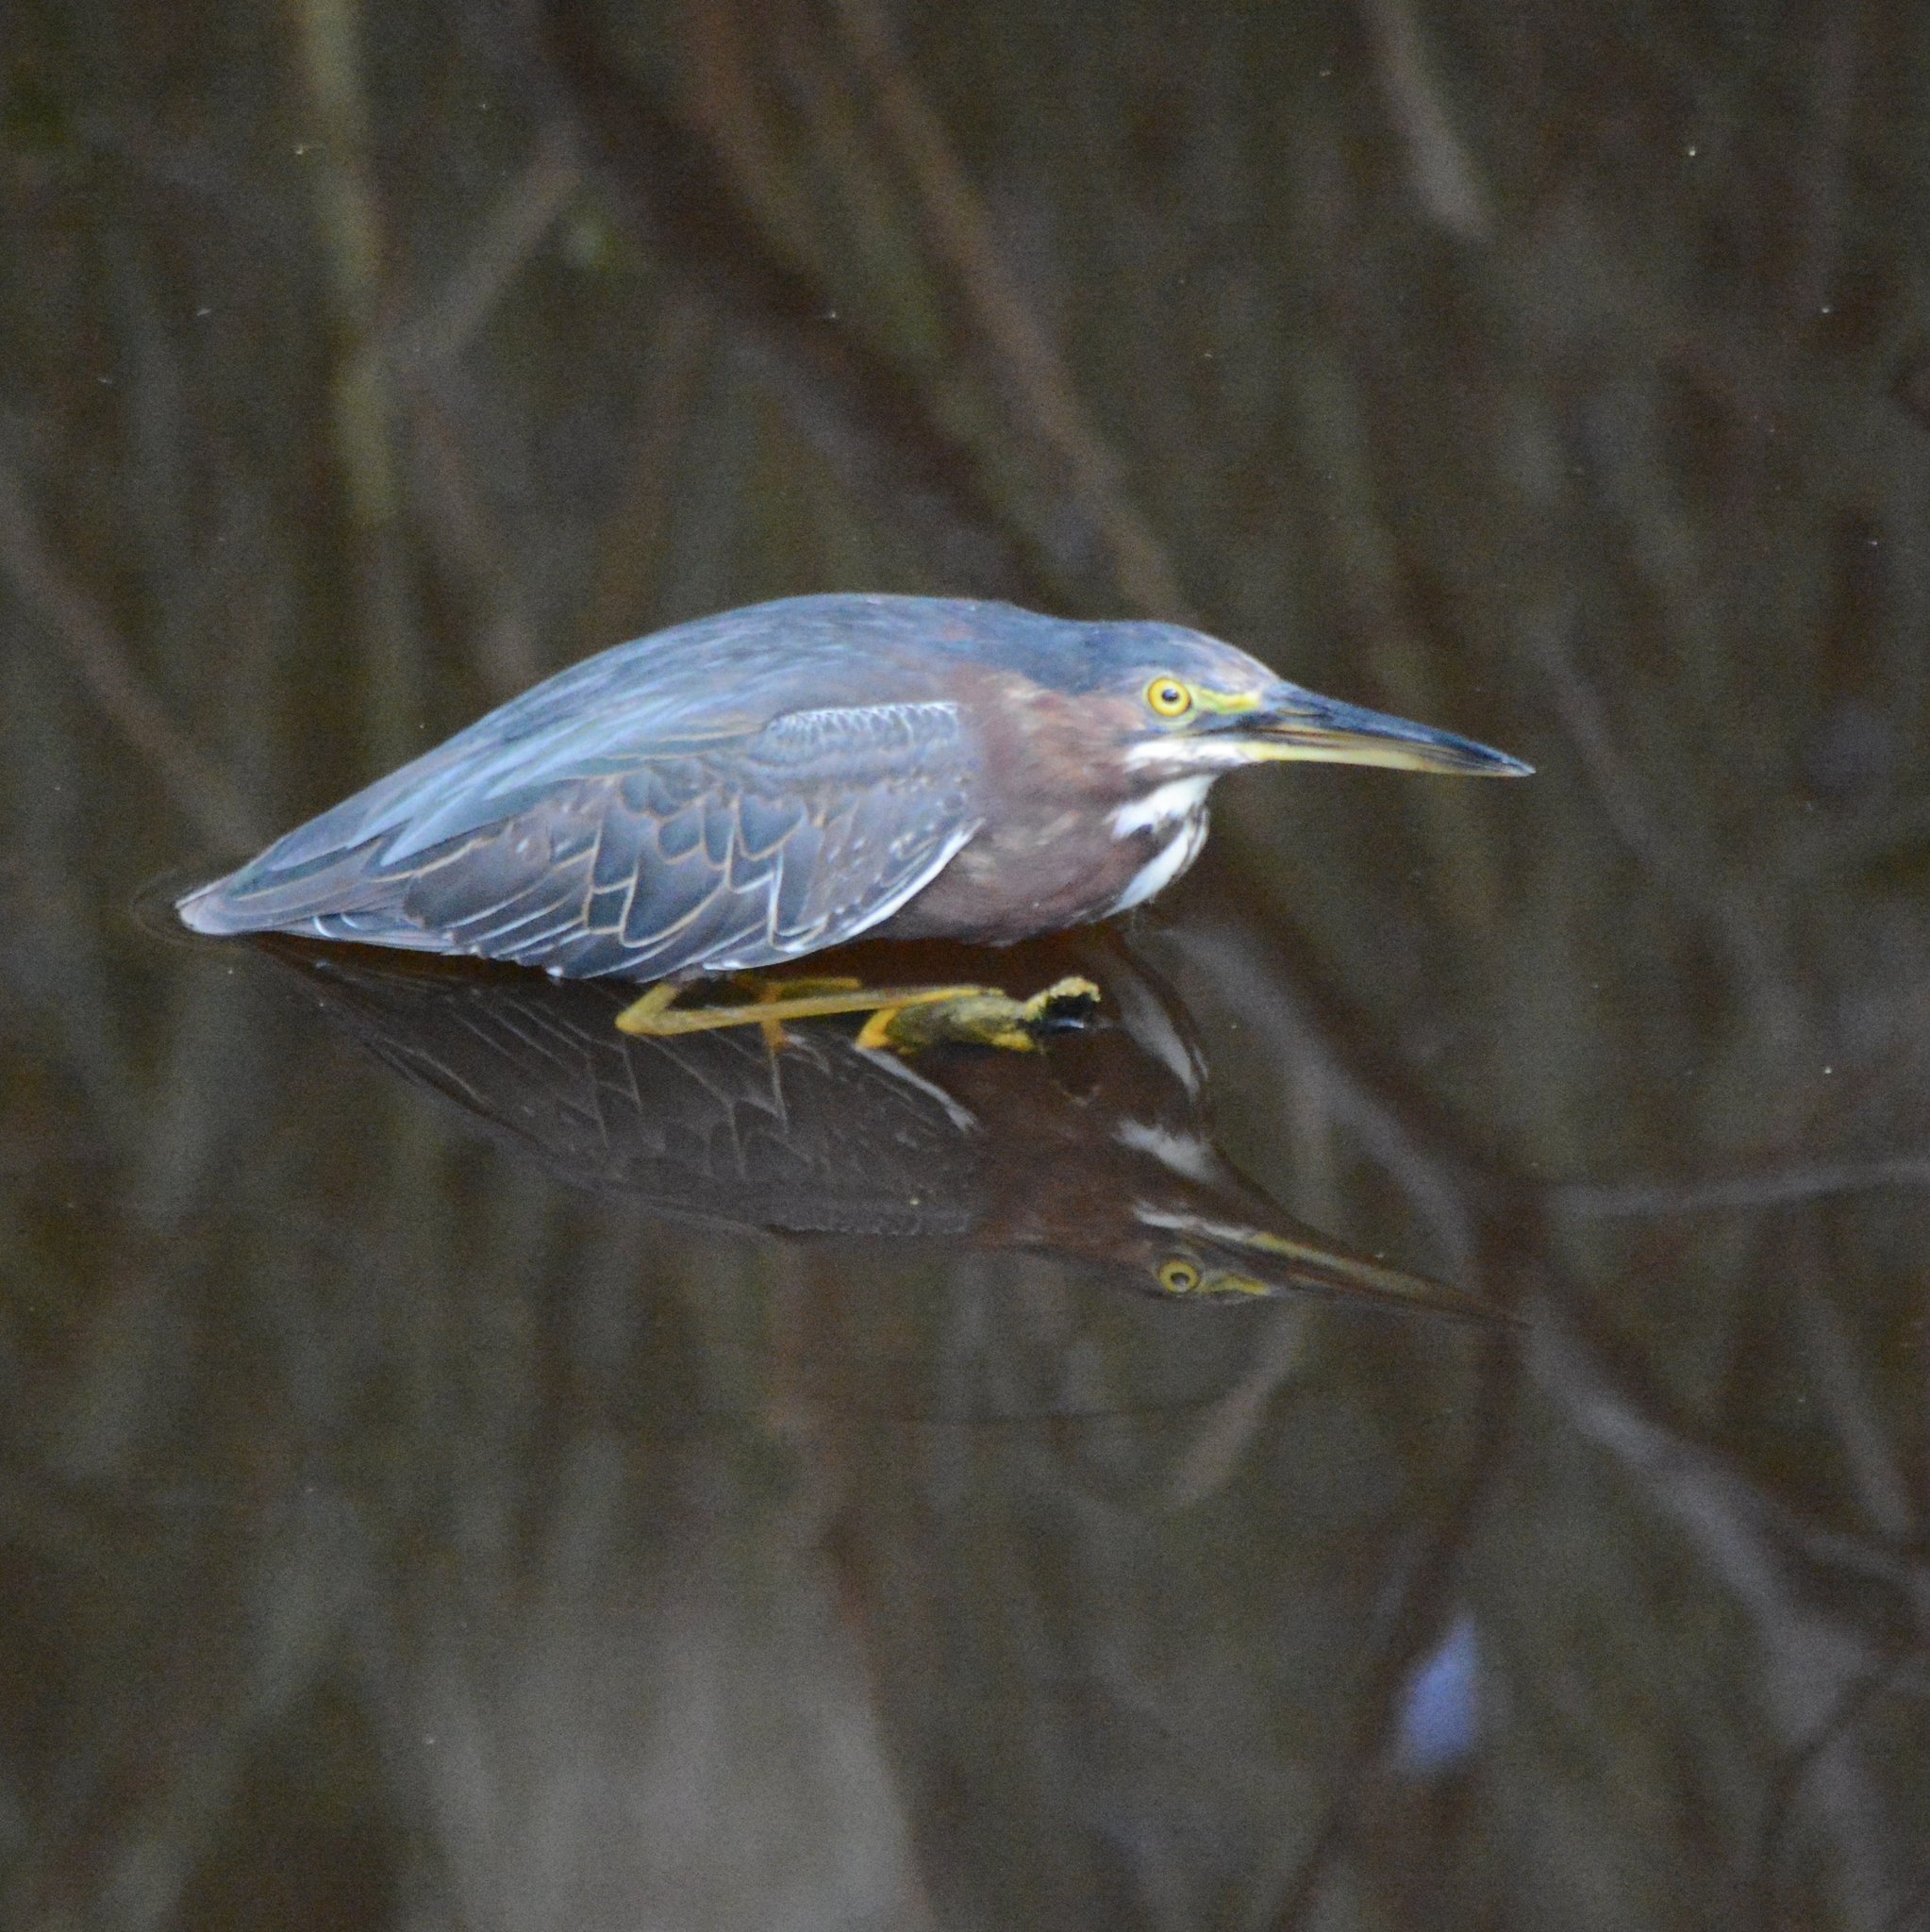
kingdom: Animalia
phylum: Chordata
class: Aves
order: Pelecaniformes
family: Ardeidae
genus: Butorides
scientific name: Butorides virescens
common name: Green heron
